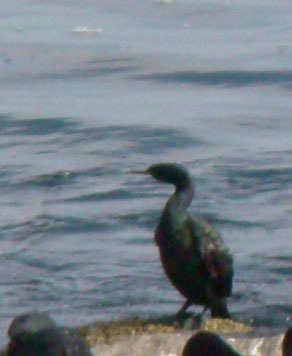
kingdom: Animalia
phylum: Chordata
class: Aves
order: Suliformes
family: Phalacrocoracidae
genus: Phalacrocorax
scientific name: Phalacrocorax pelagicus
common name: Pelagic cormorant
